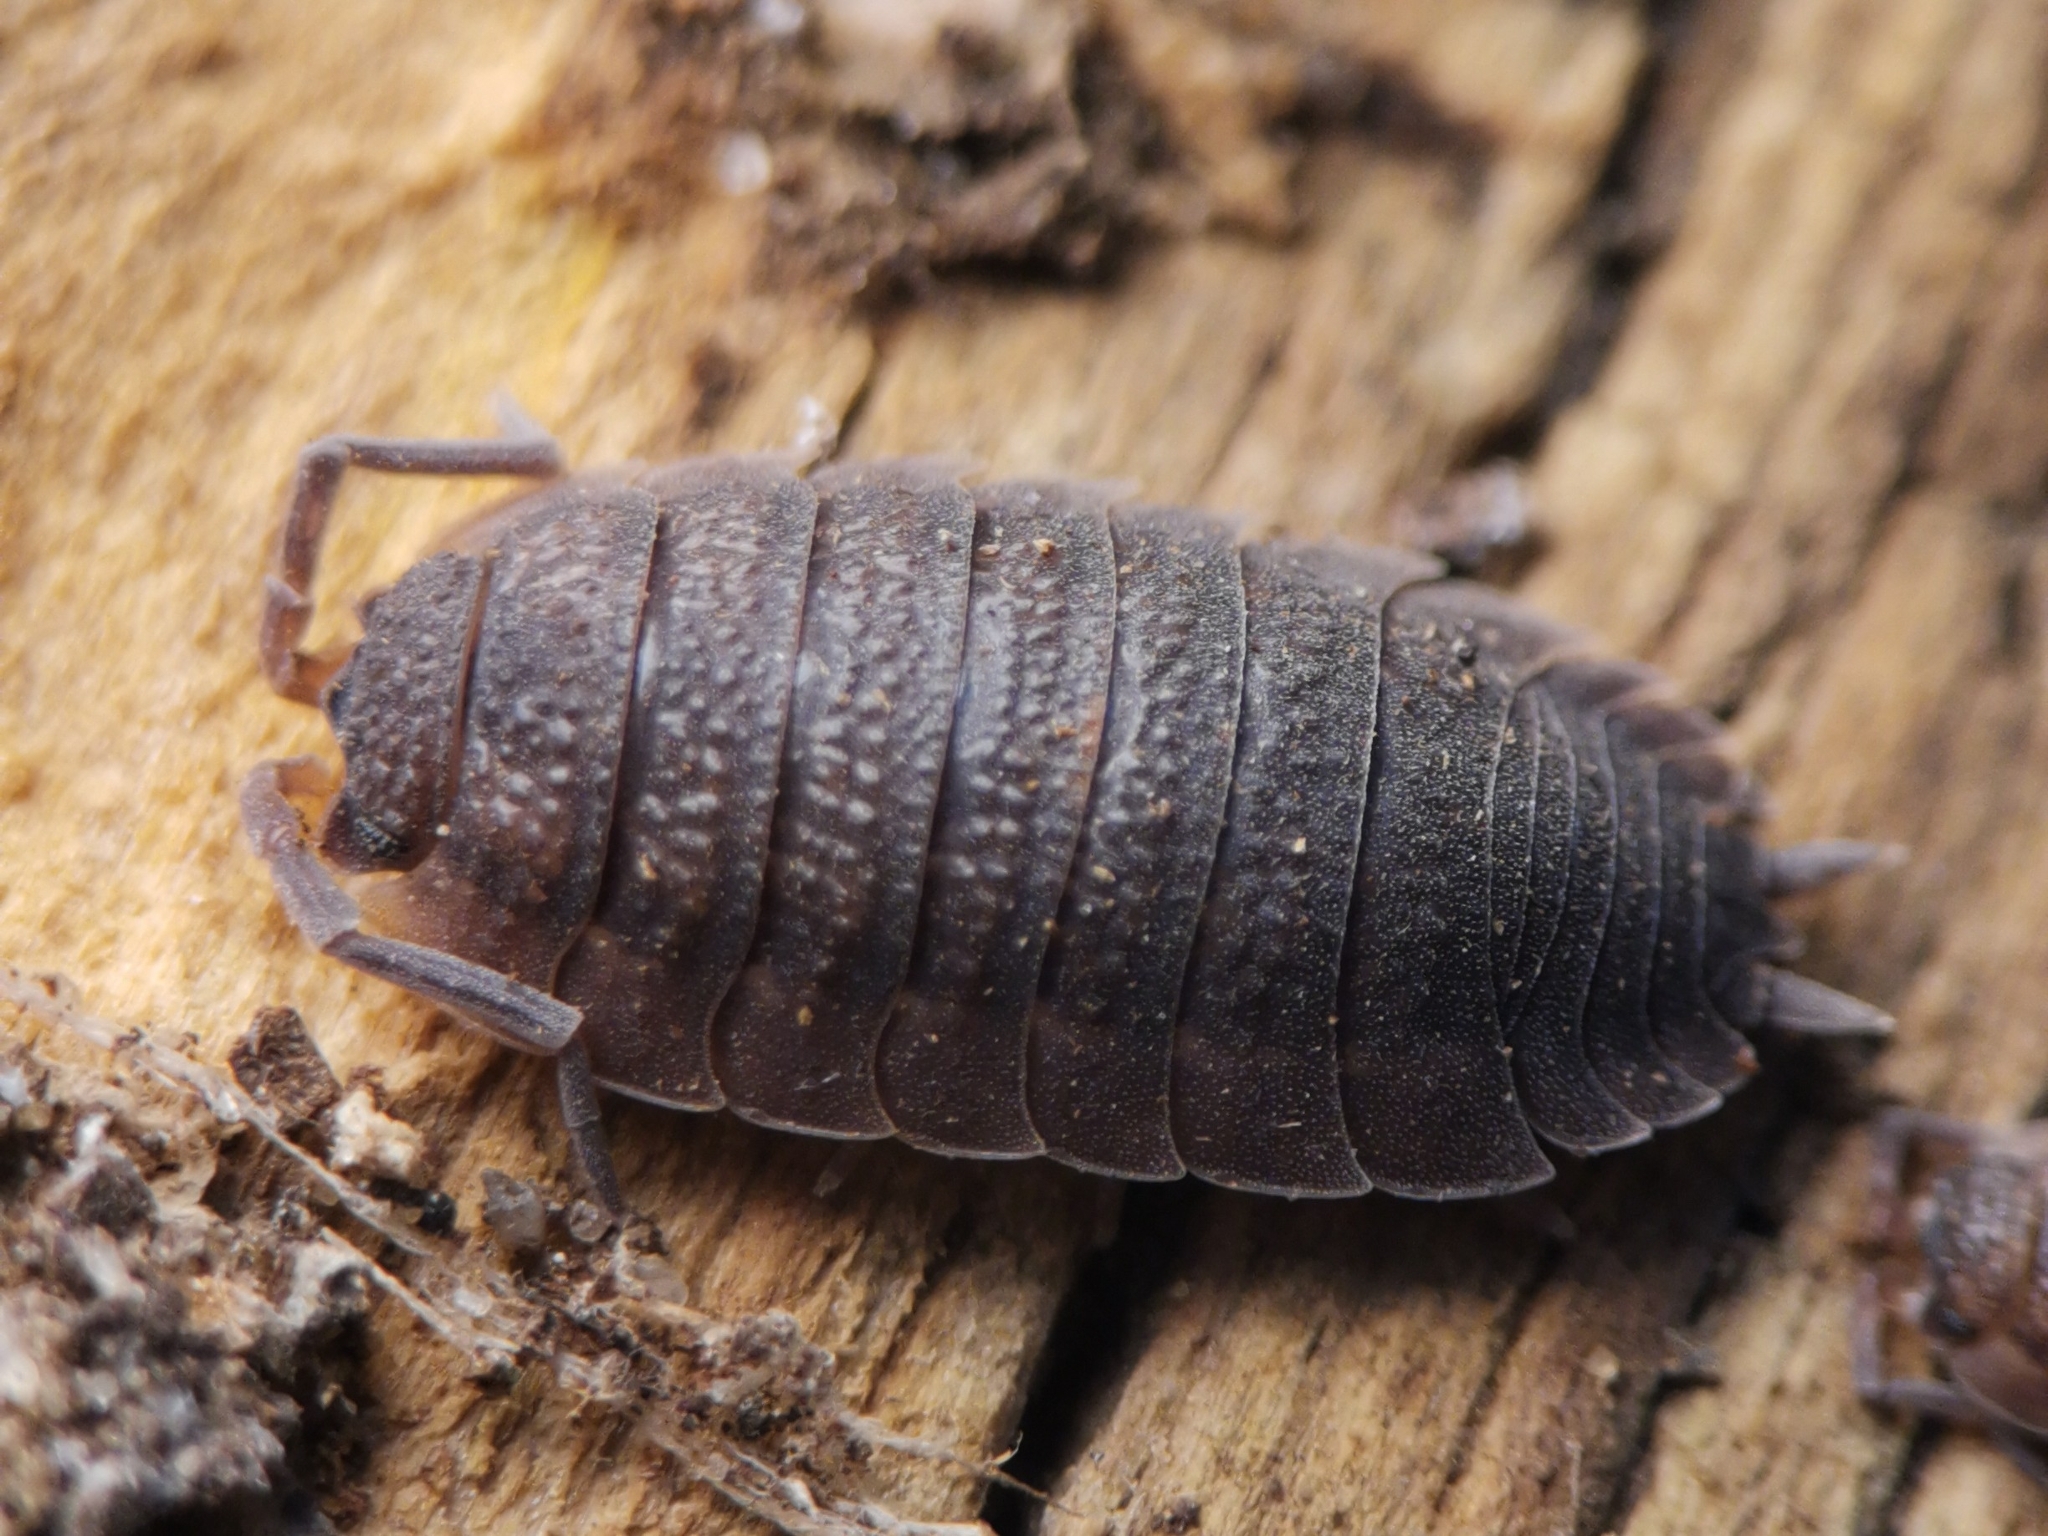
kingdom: Animalia
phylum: Arthropoda
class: Malacostraca
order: Isopoda
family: Porcellionidae
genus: Porcellio
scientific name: Porcellio scaber
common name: Common rough woodlouse
